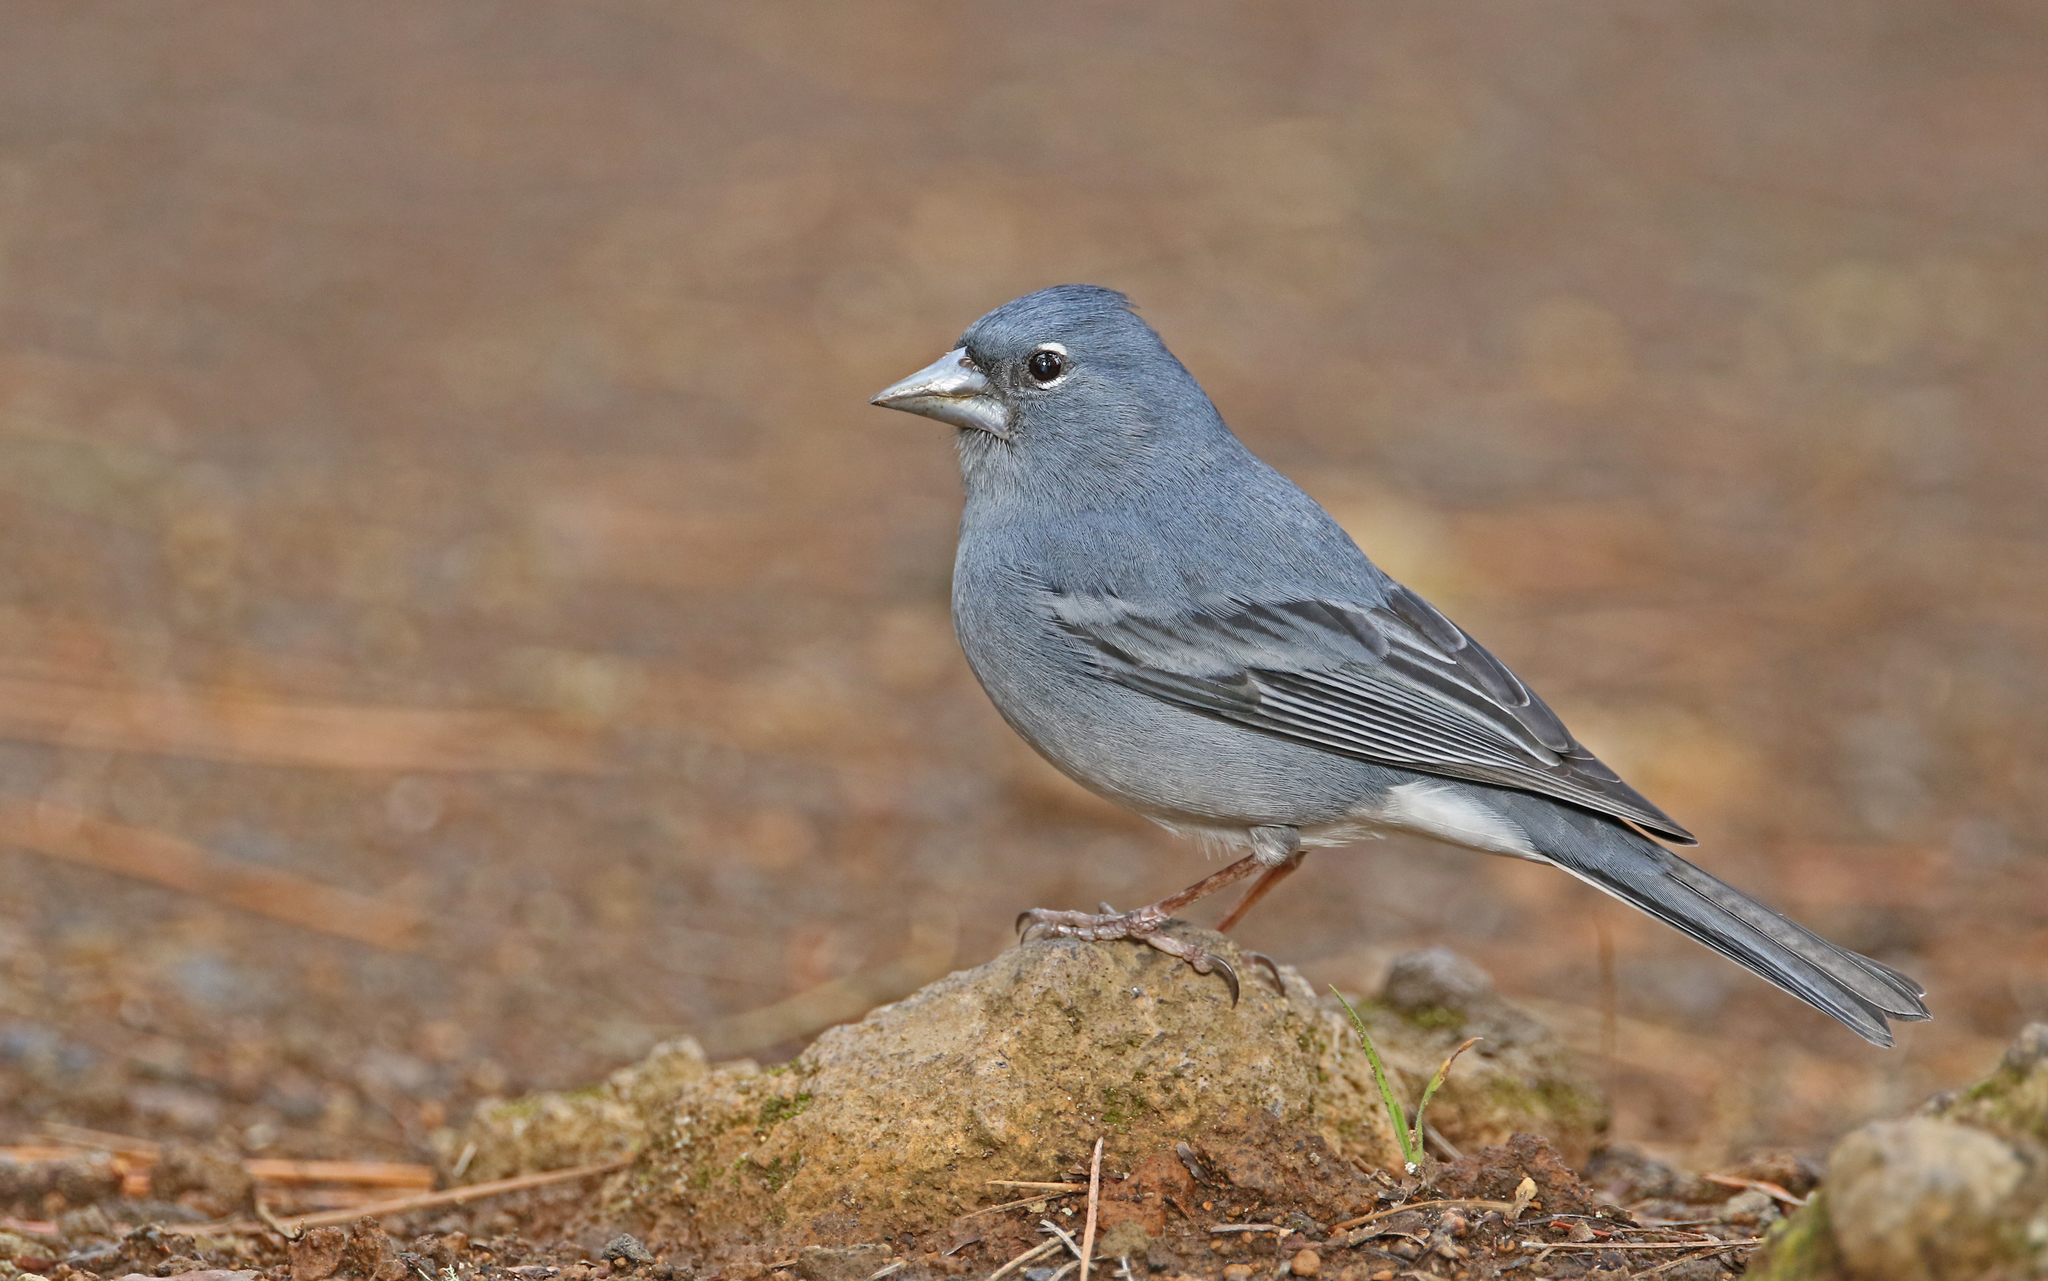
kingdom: Animalia
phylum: Chordata
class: Aves
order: Passeriformes
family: Fringillidae
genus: Fringilla
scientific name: Fringilla teydea
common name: Blue chaffinch
